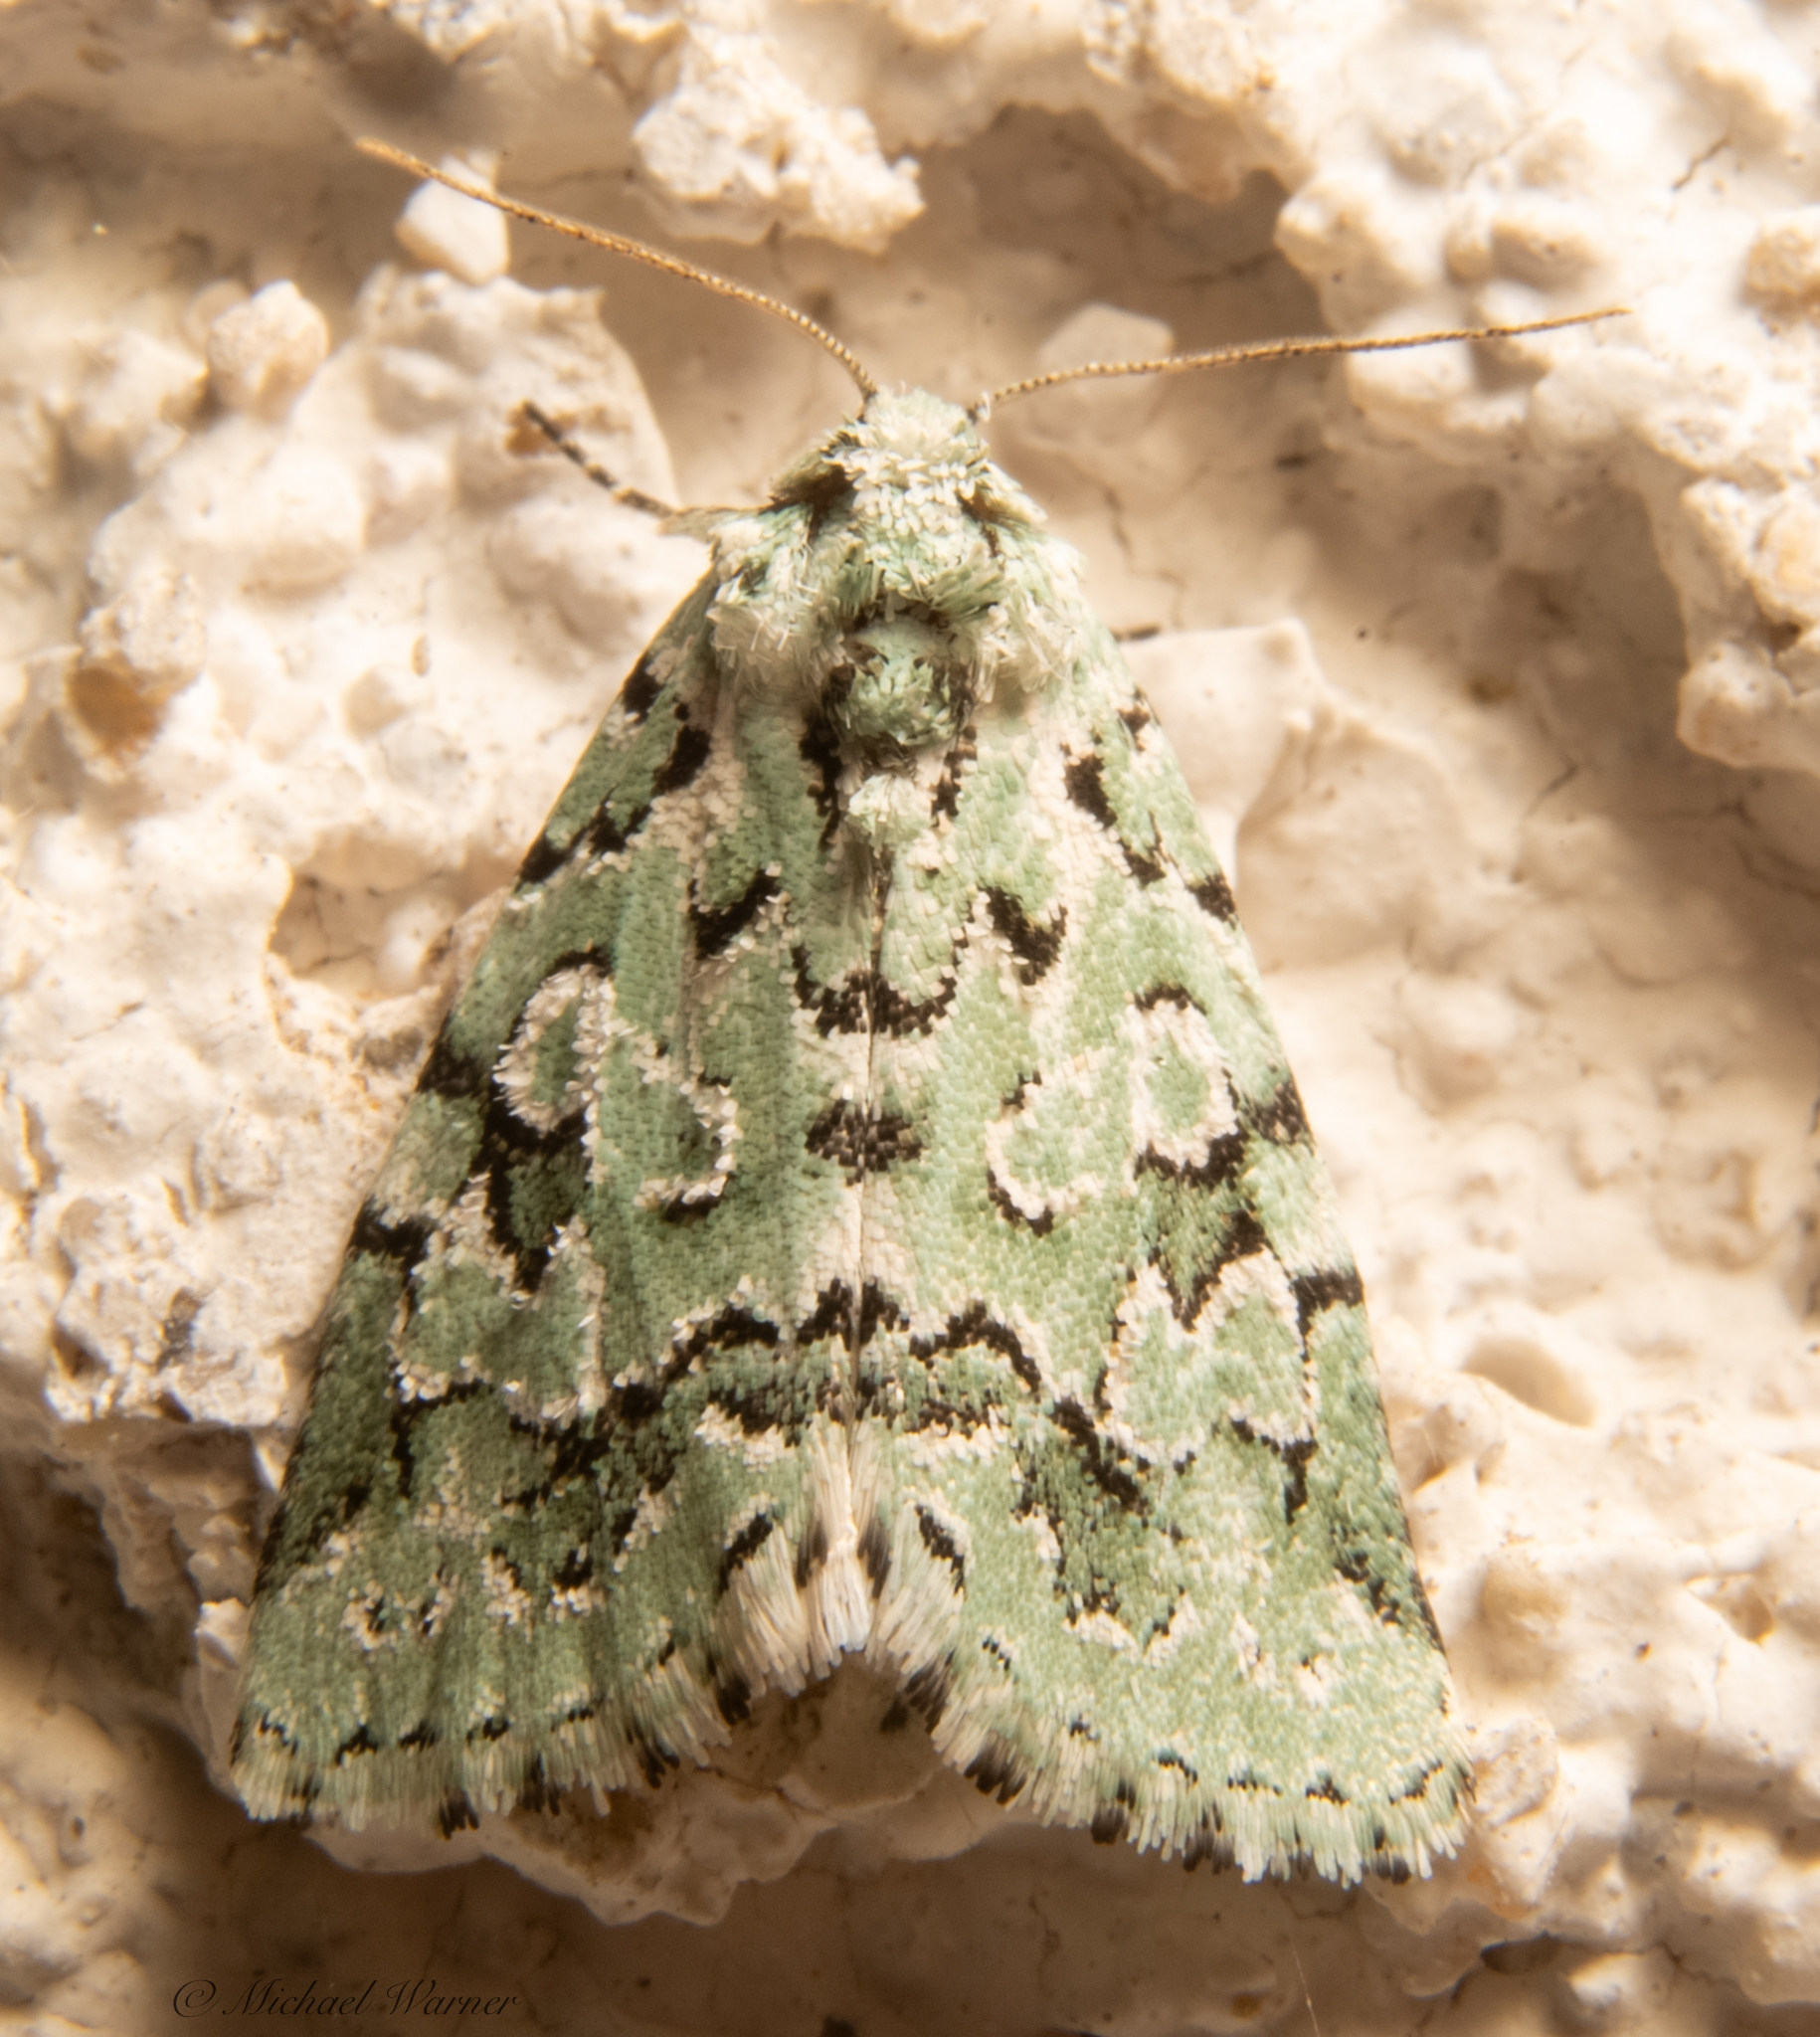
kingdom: Animalia
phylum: Arthropoda
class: Insecta
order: Lepidoptera
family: Noctuidae
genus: Bryolymnia
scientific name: Bryolymnia viridata
